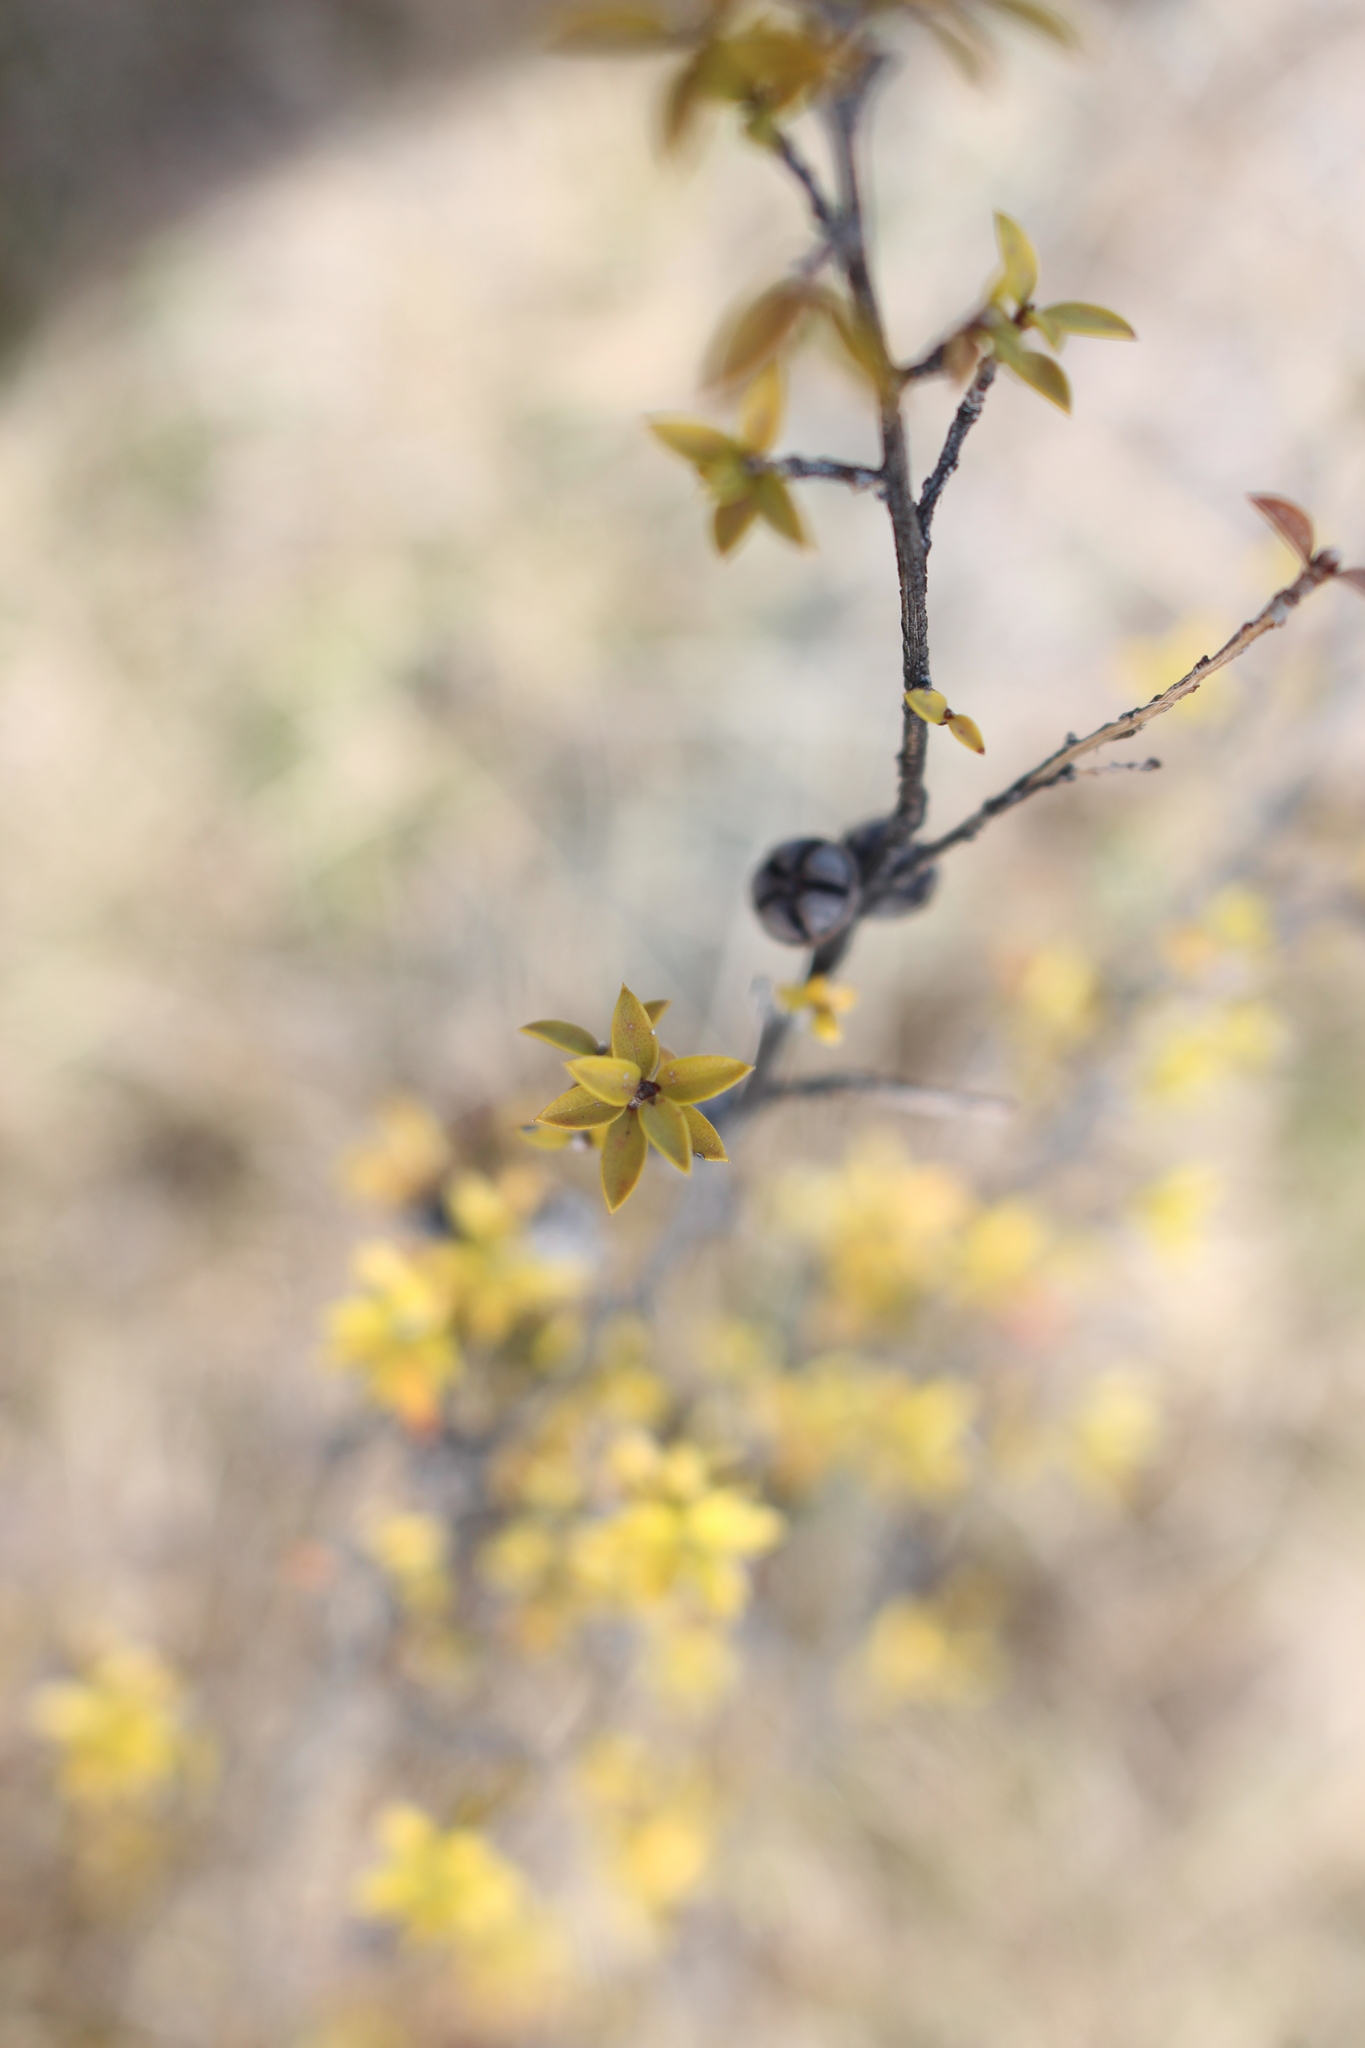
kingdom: Plantae
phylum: Tracheophyta
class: Magnoliopsida
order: Myrtales
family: Myrtaceae
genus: Leptospermum
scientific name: Leptospermum scoparium
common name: Broom tea-tree
